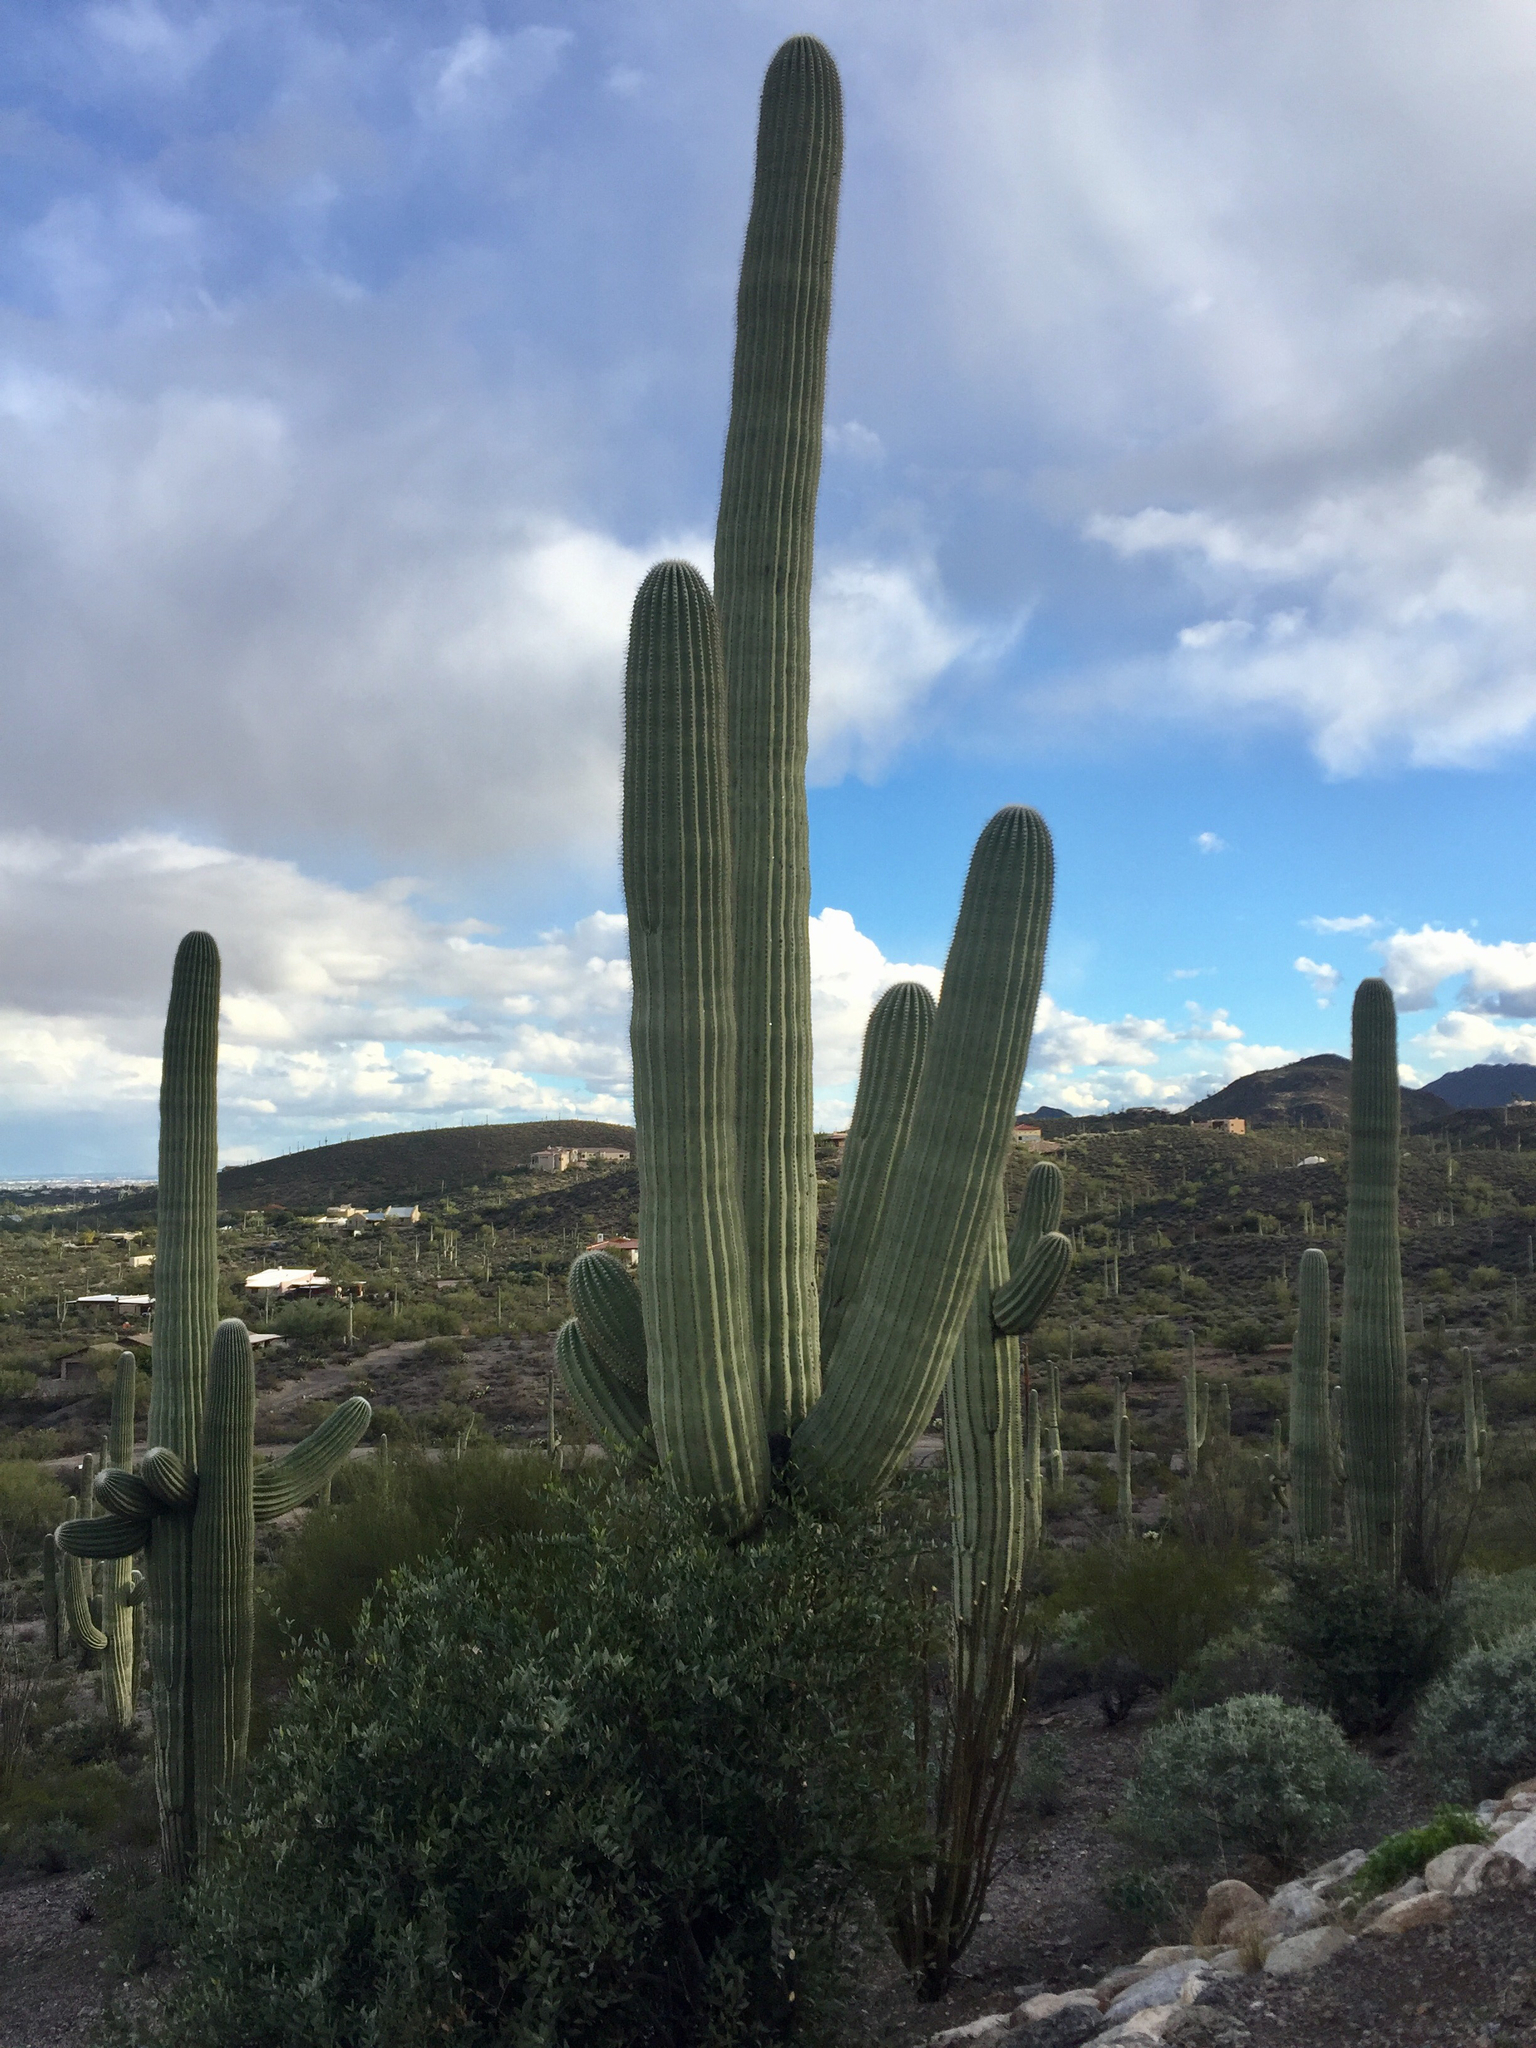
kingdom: Plantae
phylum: Tracheophyta
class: Magnoliopsida
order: Caryophyllales
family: Cactaceae
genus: Carnegiea
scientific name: Carnegiea gigantea
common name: Saguaro
